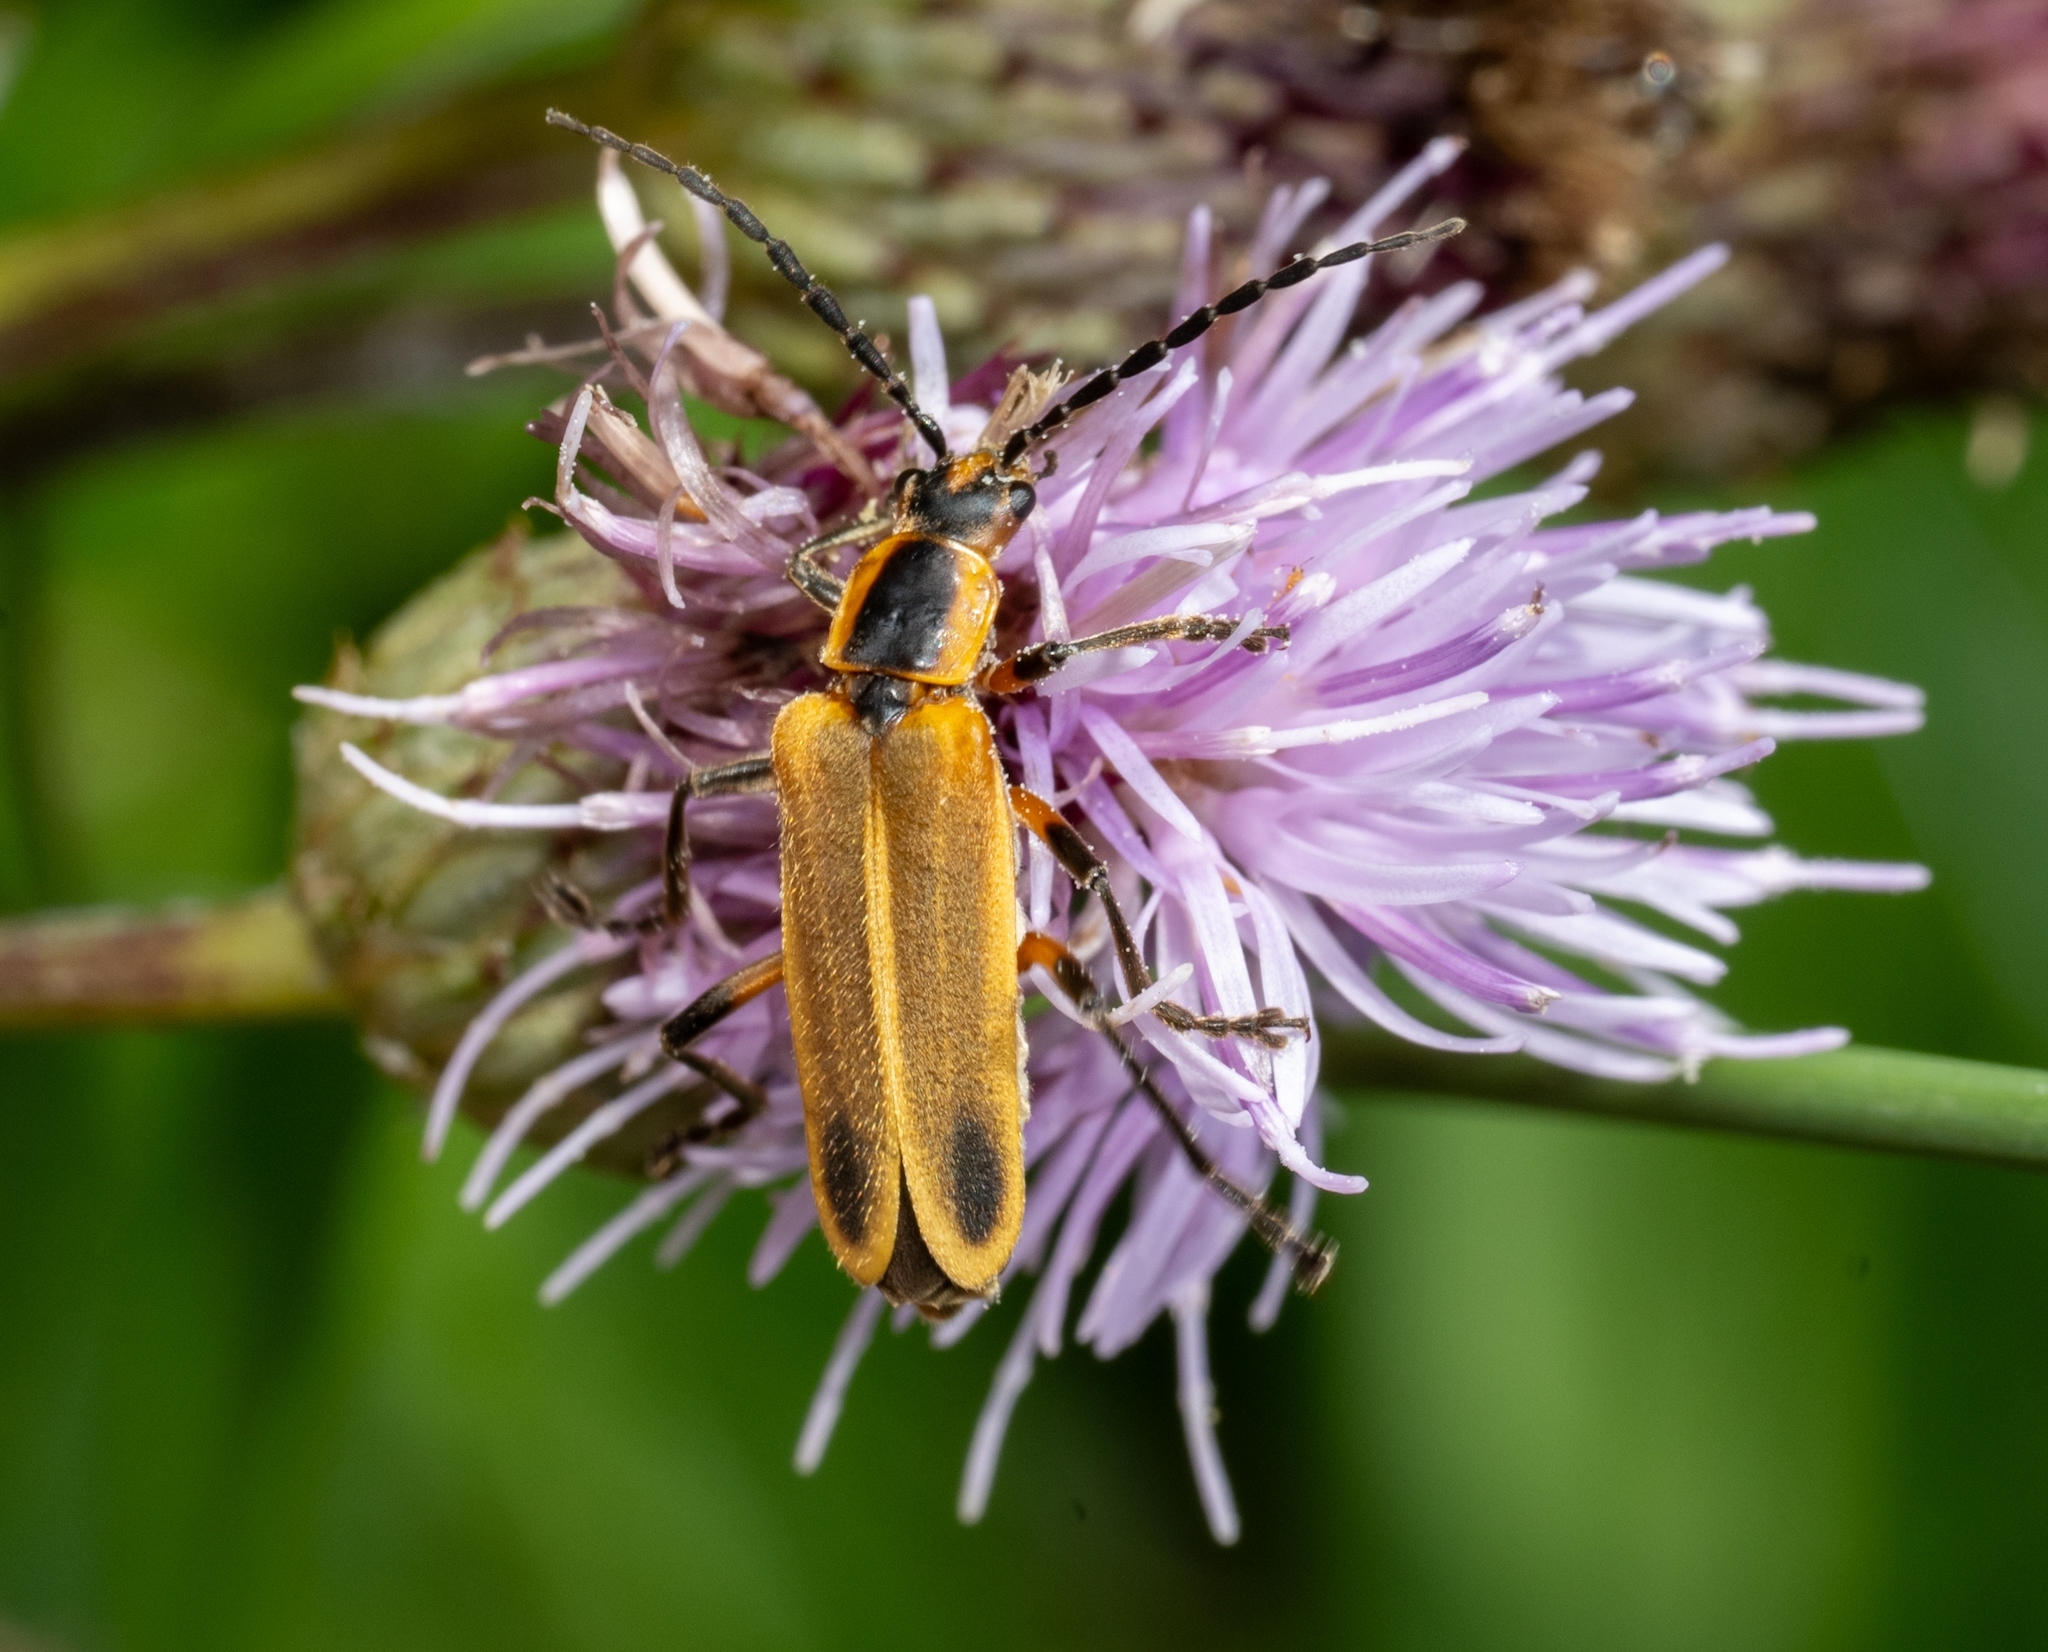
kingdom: Animalia
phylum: Arthropoda
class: Insecta
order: Coleoptera
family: Cantharidae
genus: Chauliognathus
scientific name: Chauliognathus marginatus
